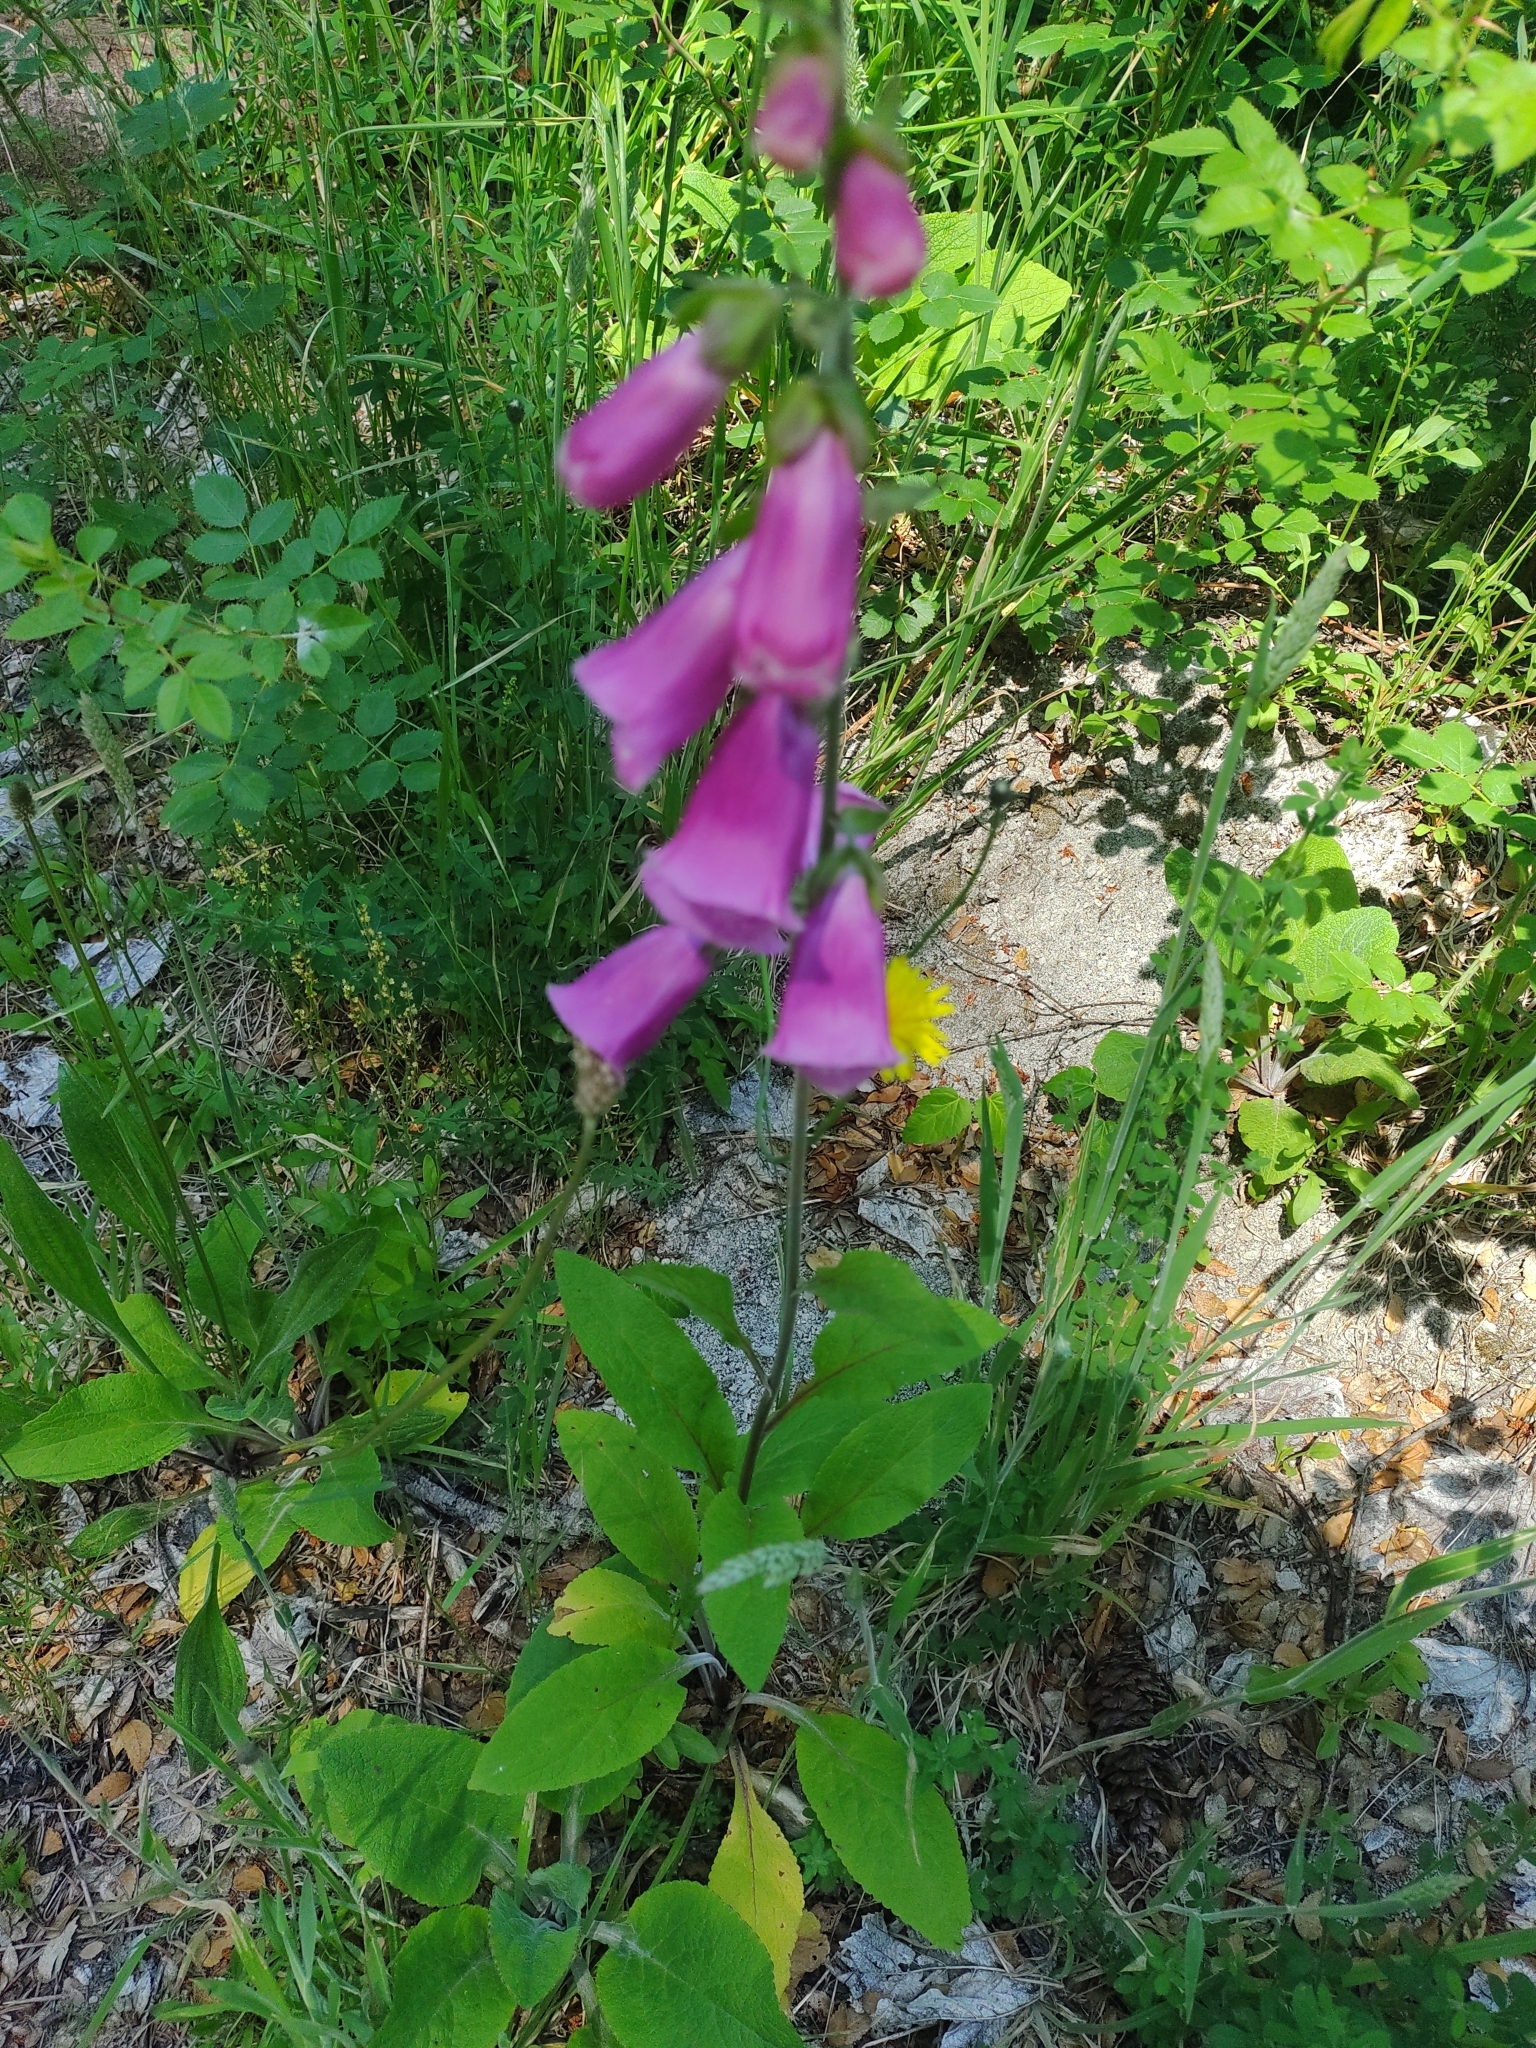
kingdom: Plantae
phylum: Tracheophyta
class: Magnoliopsida
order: Lamiales
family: Plantaginaceae
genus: Digitalis
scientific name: Digitalis purpurea
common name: Foxglove
